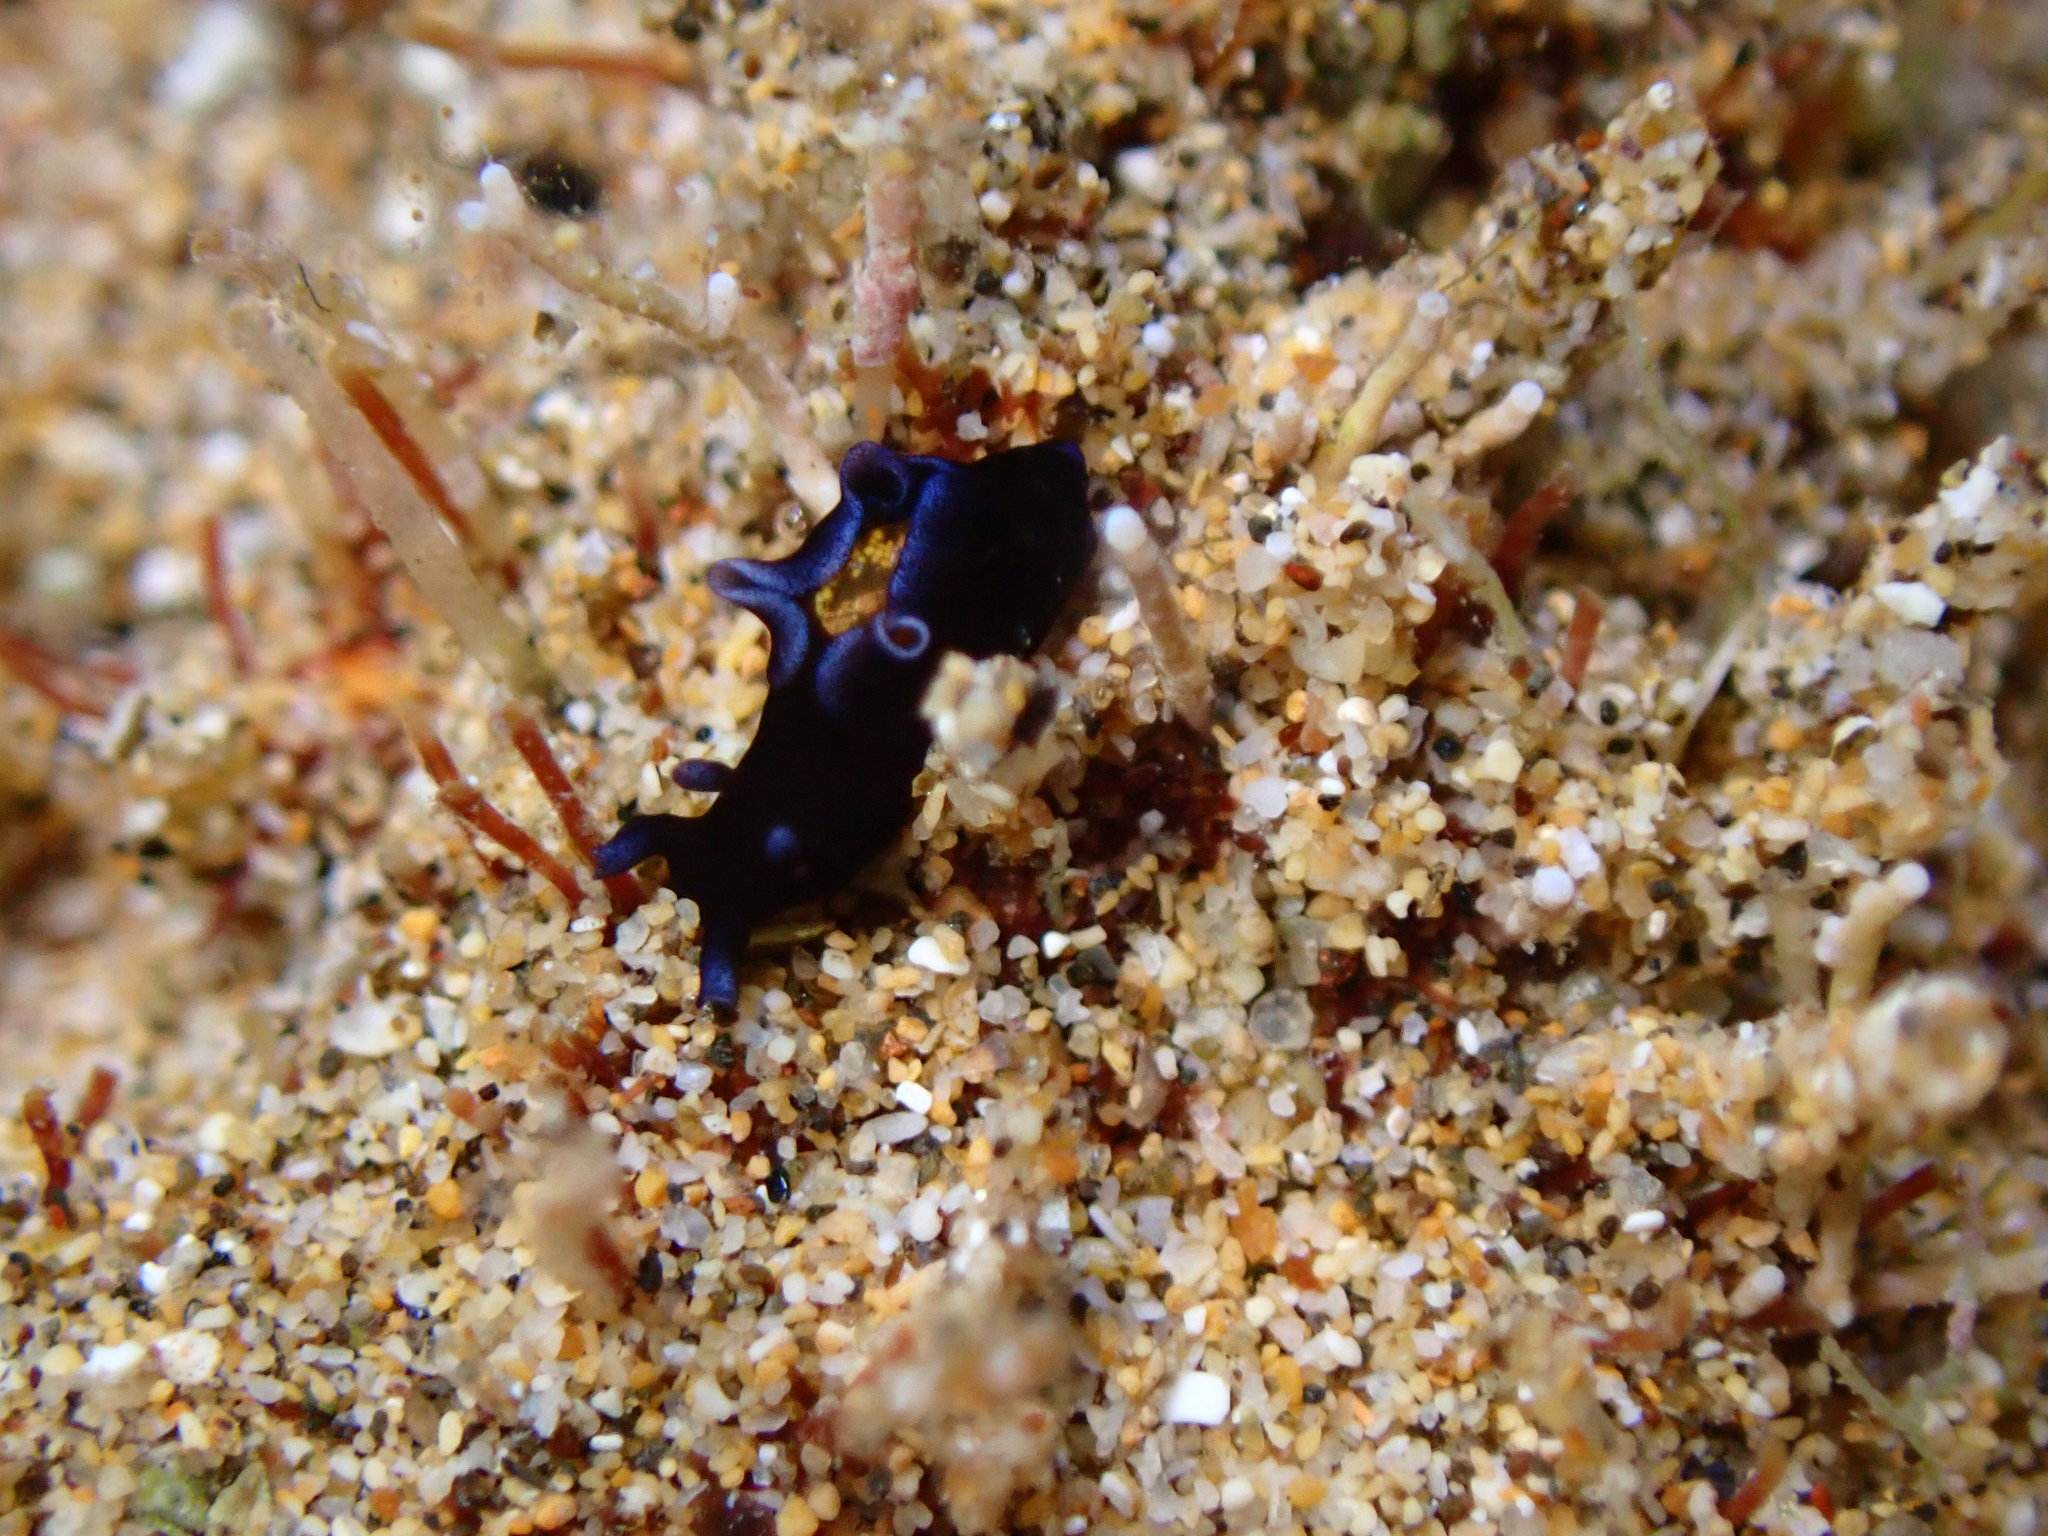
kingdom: Animalia
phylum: Mollusca
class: Gastropoda
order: Aplysiida
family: Aplysiidae
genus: Aplysia
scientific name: Aplysia elongata
